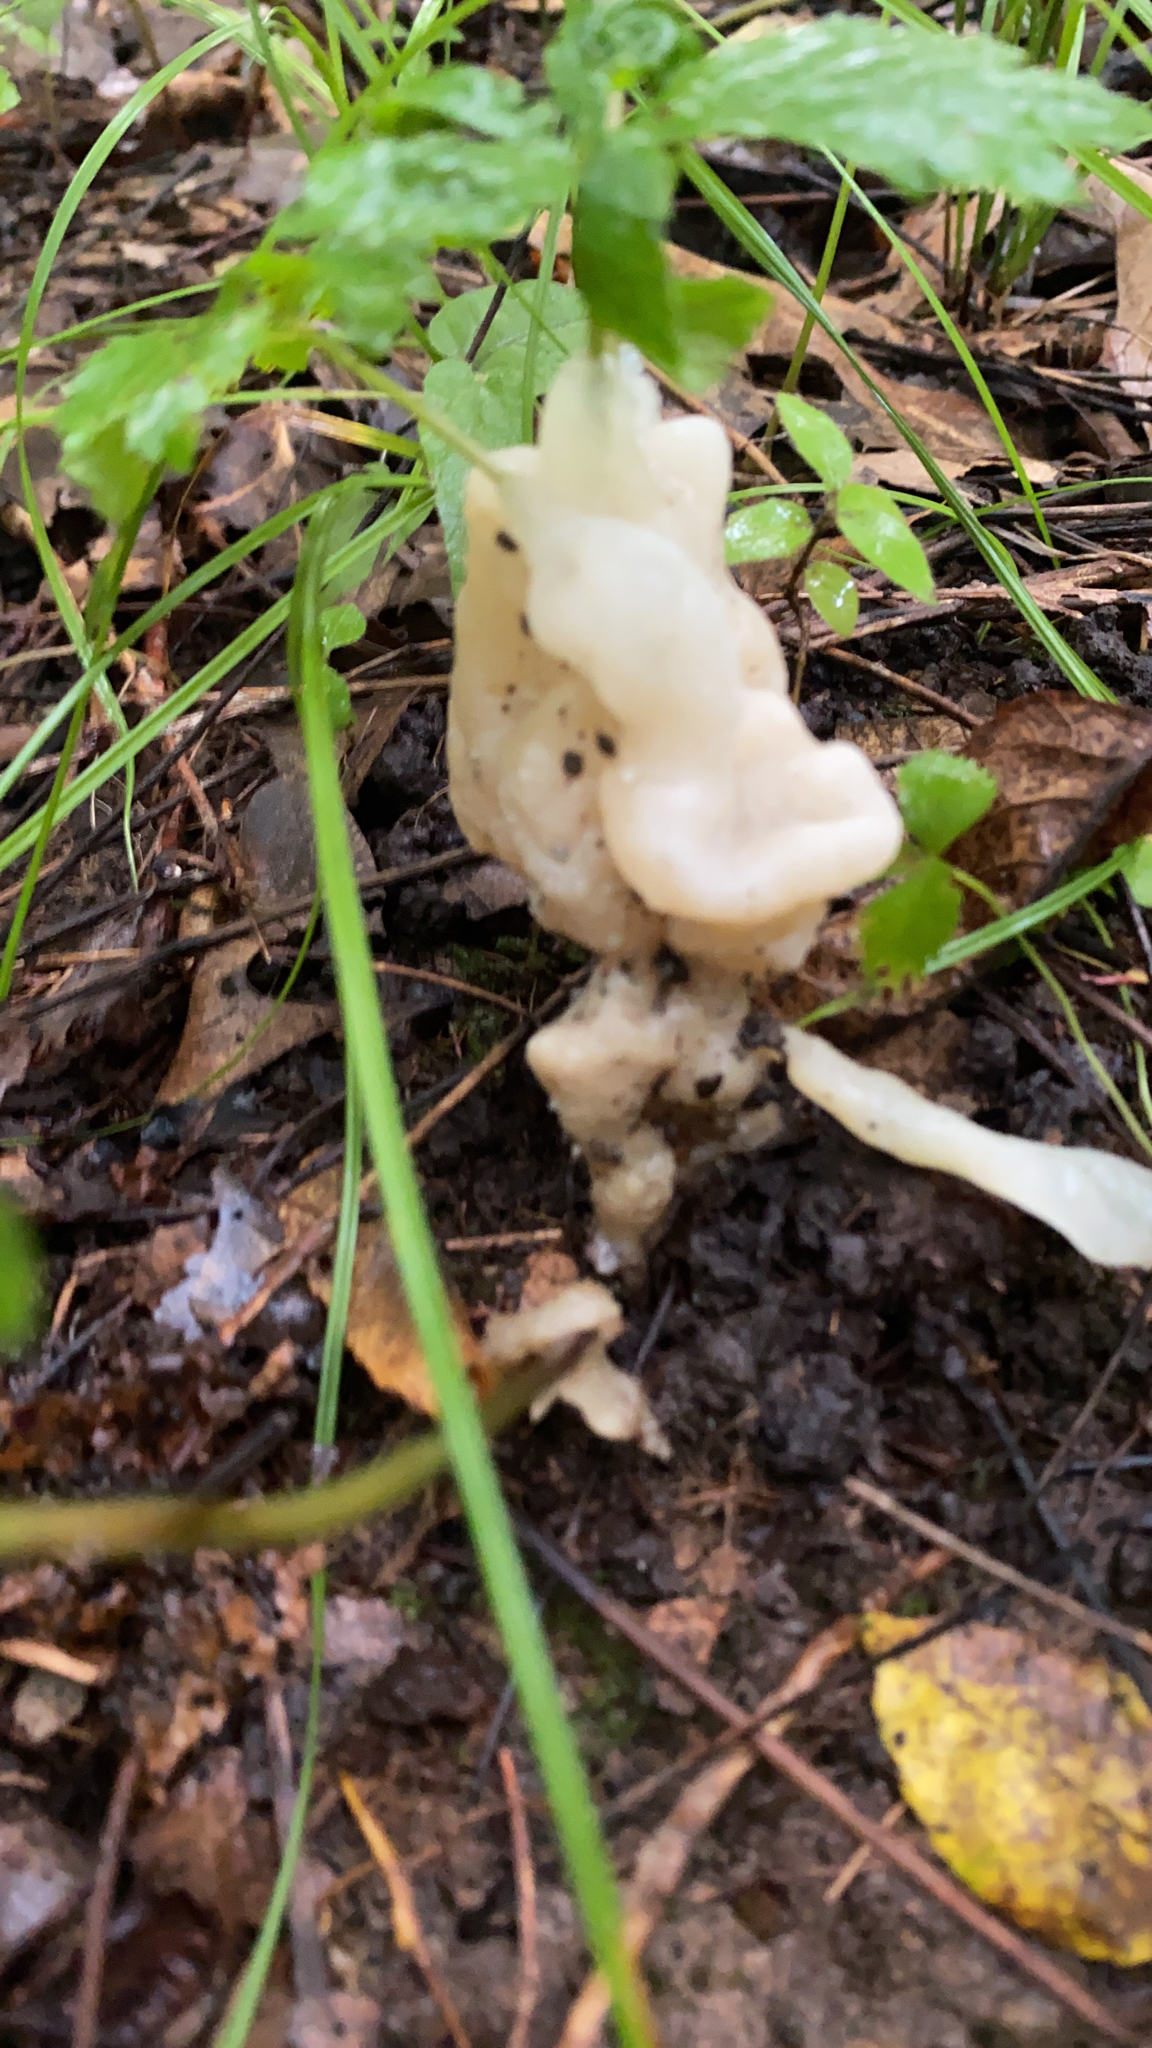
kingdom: Fungi
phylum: Basidiomycota
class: Agaricomycetes
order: Sebacinales
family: Sebacinaceae
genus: Helvellosebacina
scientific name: Helvellosebacina concrescens
